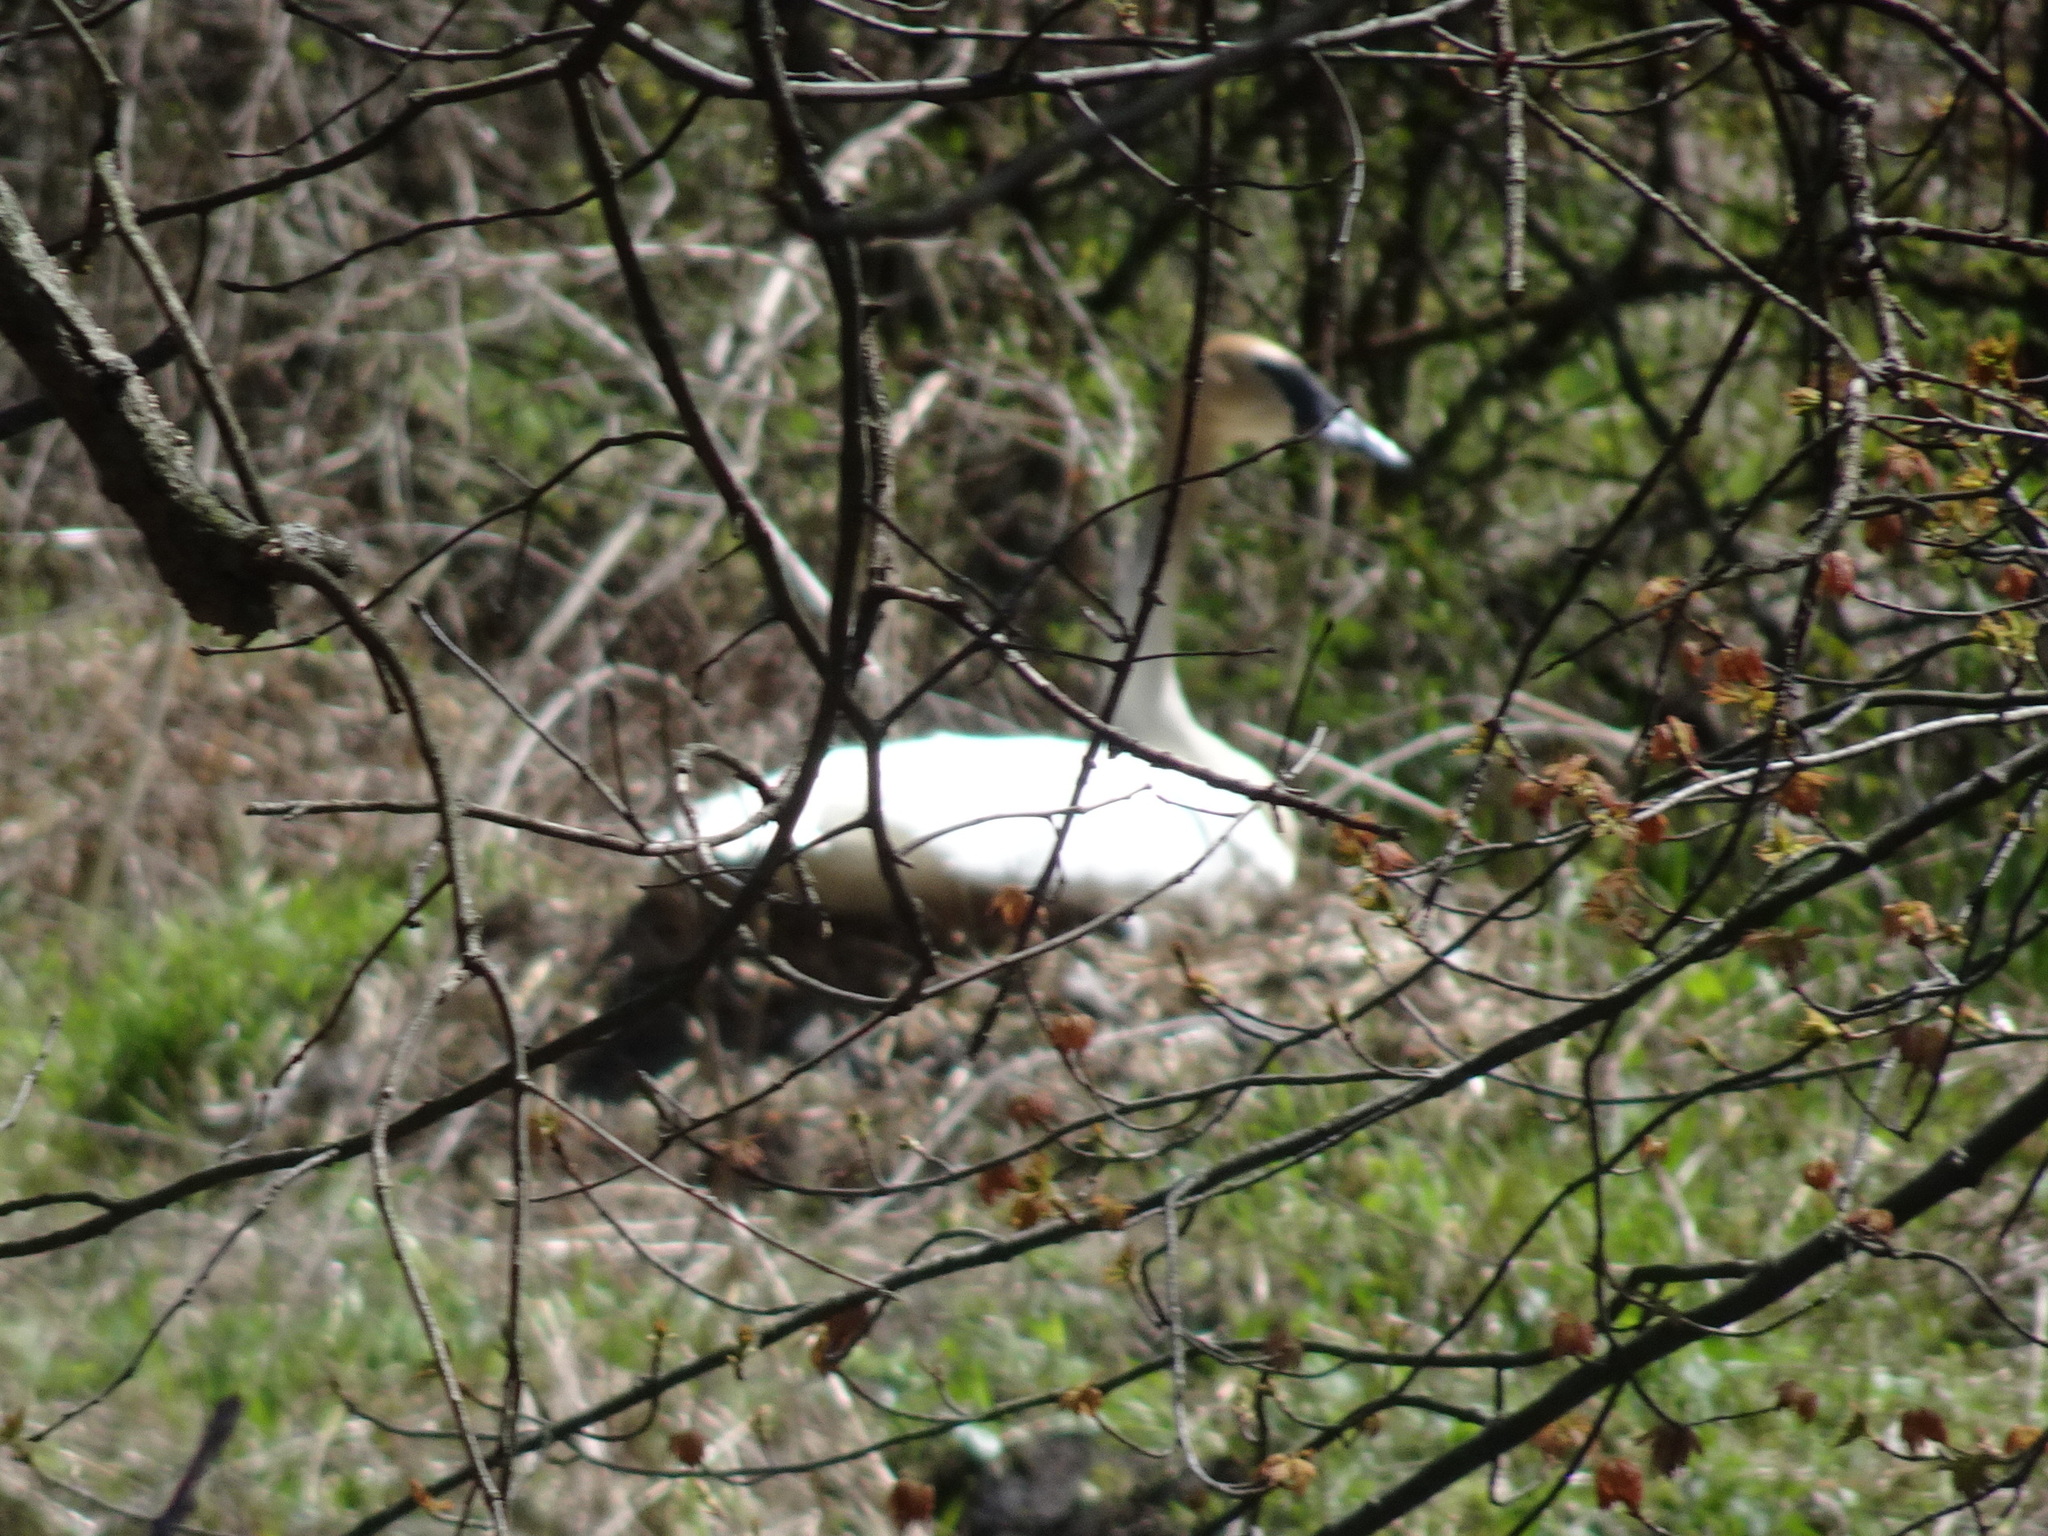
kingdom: Animalia
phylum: Chordata
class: Aves
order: Anseriformes
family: Anatidae
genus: Cygnus
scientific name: Cygnus buccinator
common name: Trumpeter swan
